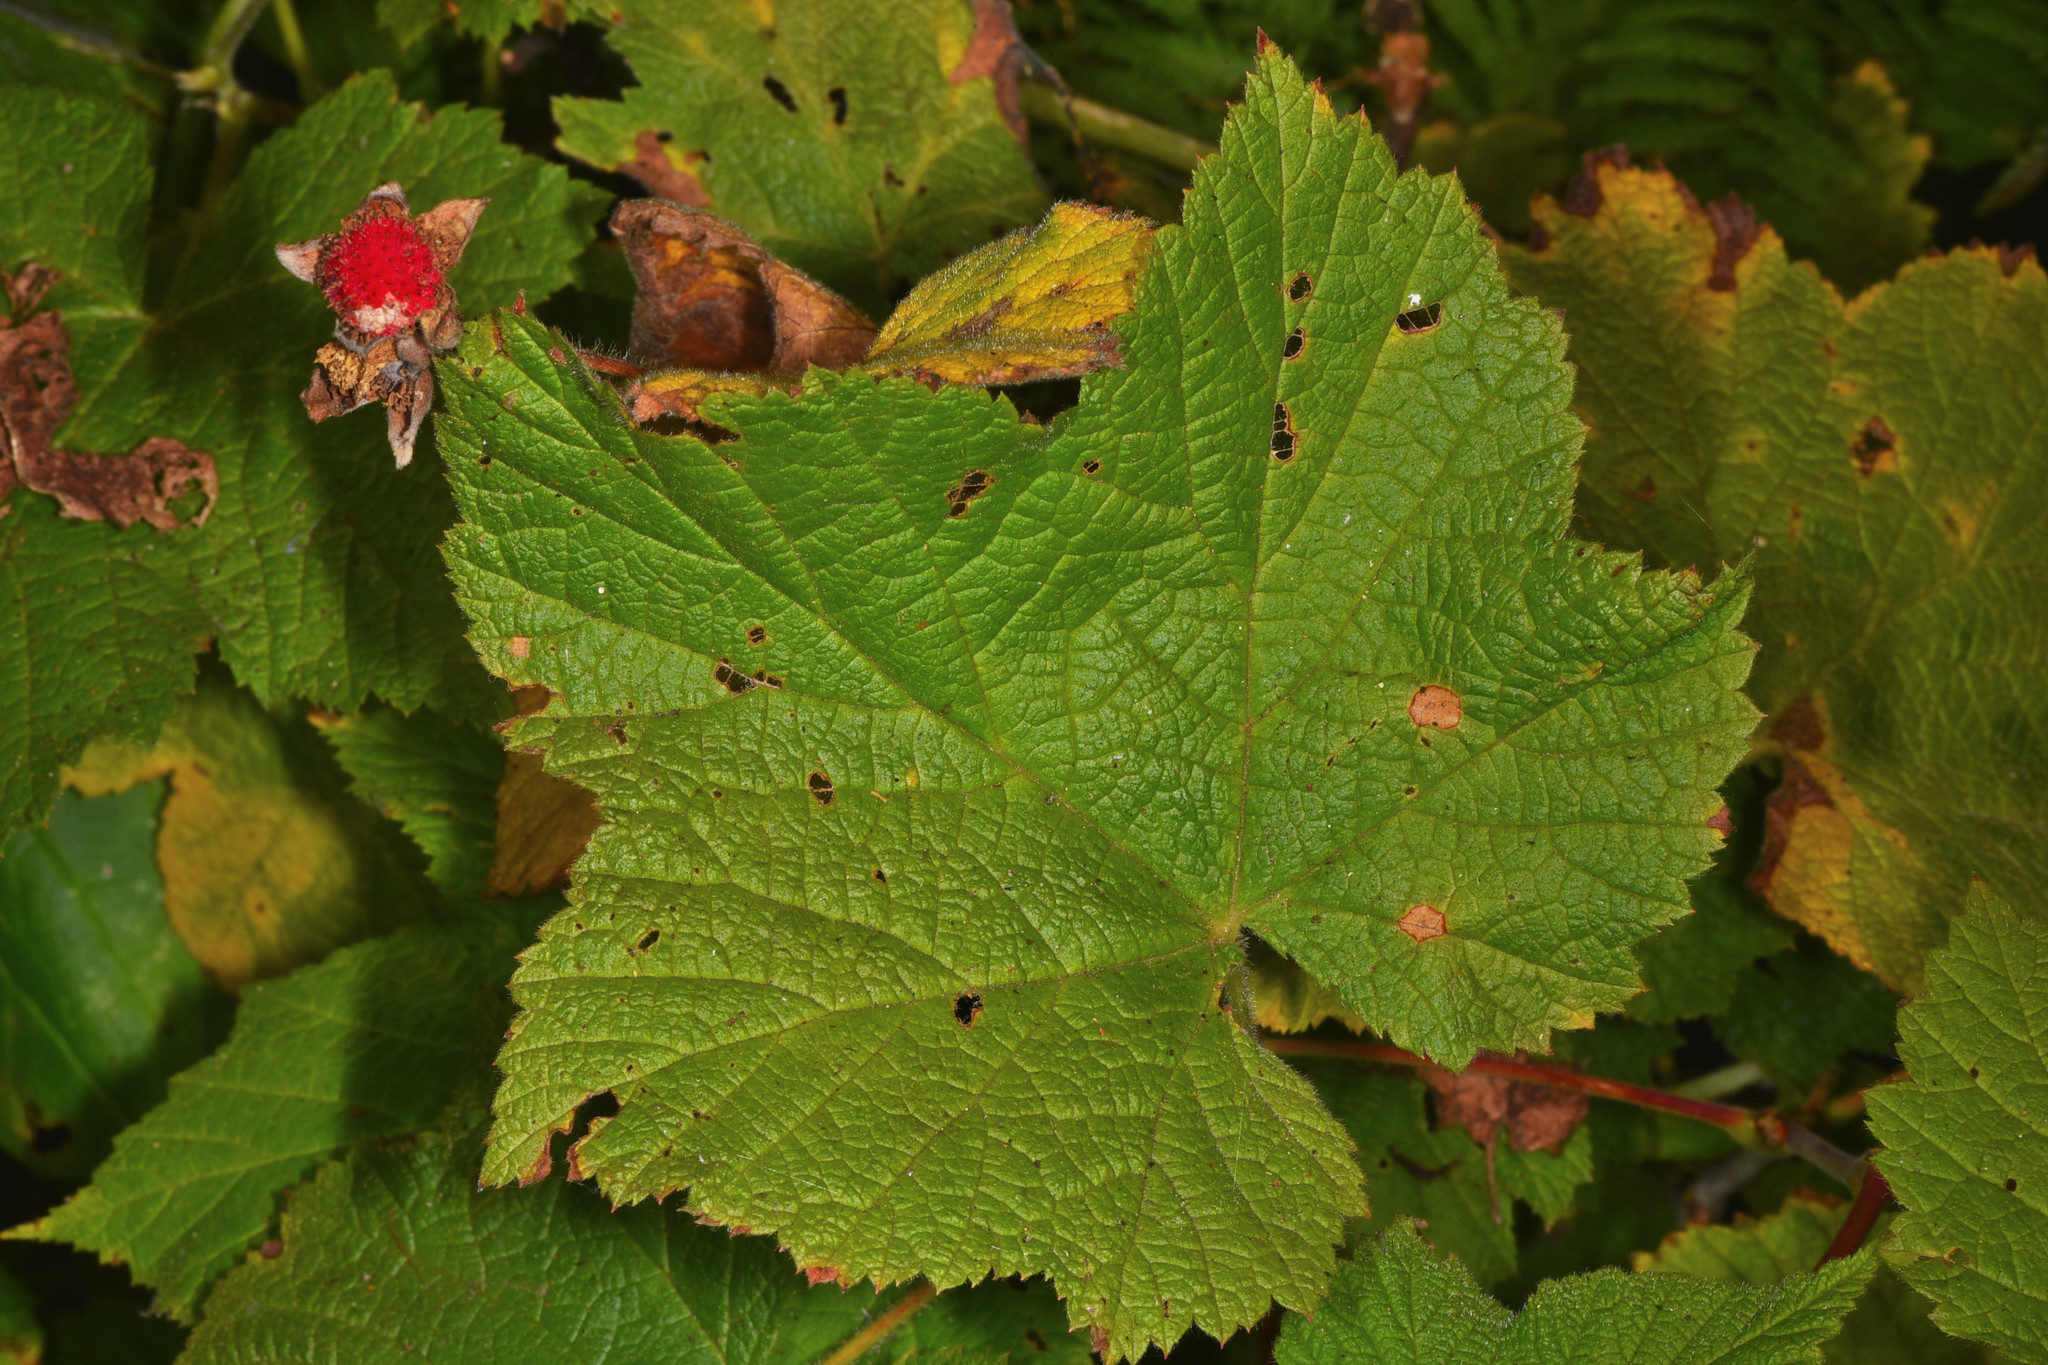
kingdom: Plantae
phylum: Tracheophyta
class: Magnoliopsida
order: Rosales
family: Rosaceae
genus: Rubus
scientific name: Rubus parviflorus
